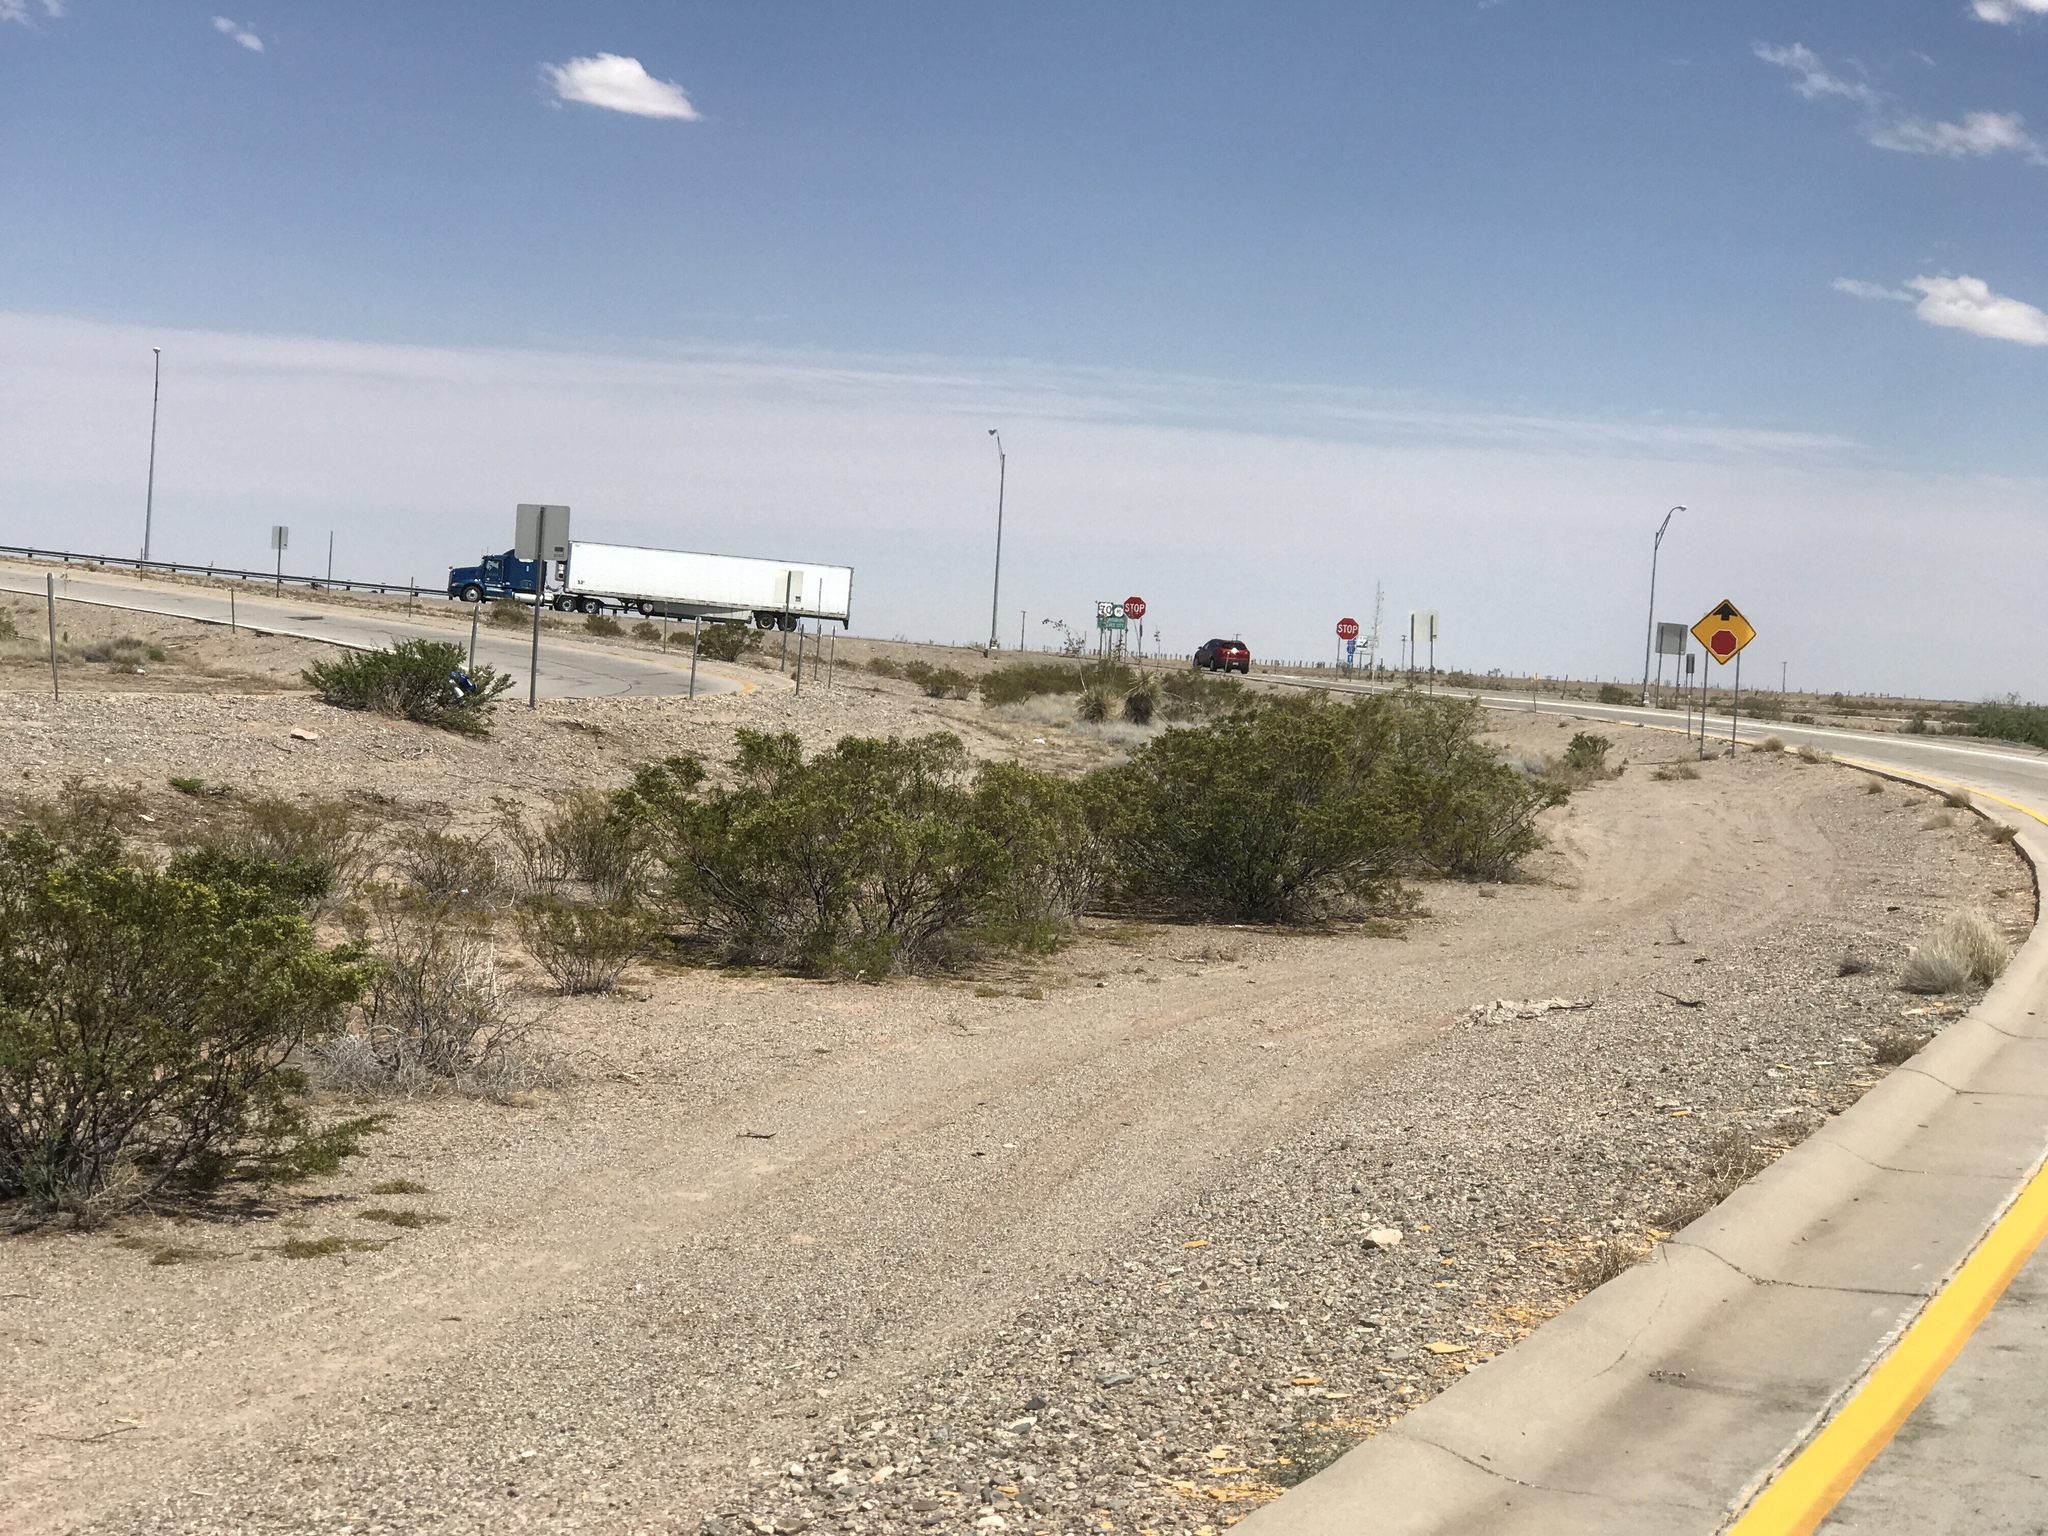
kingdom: Plantae
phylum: Tracheophyta
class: Magnoliopsida
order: Zygophyllales
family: Zygophyllaceae
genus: Larrea
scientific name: Larrea tridentata
